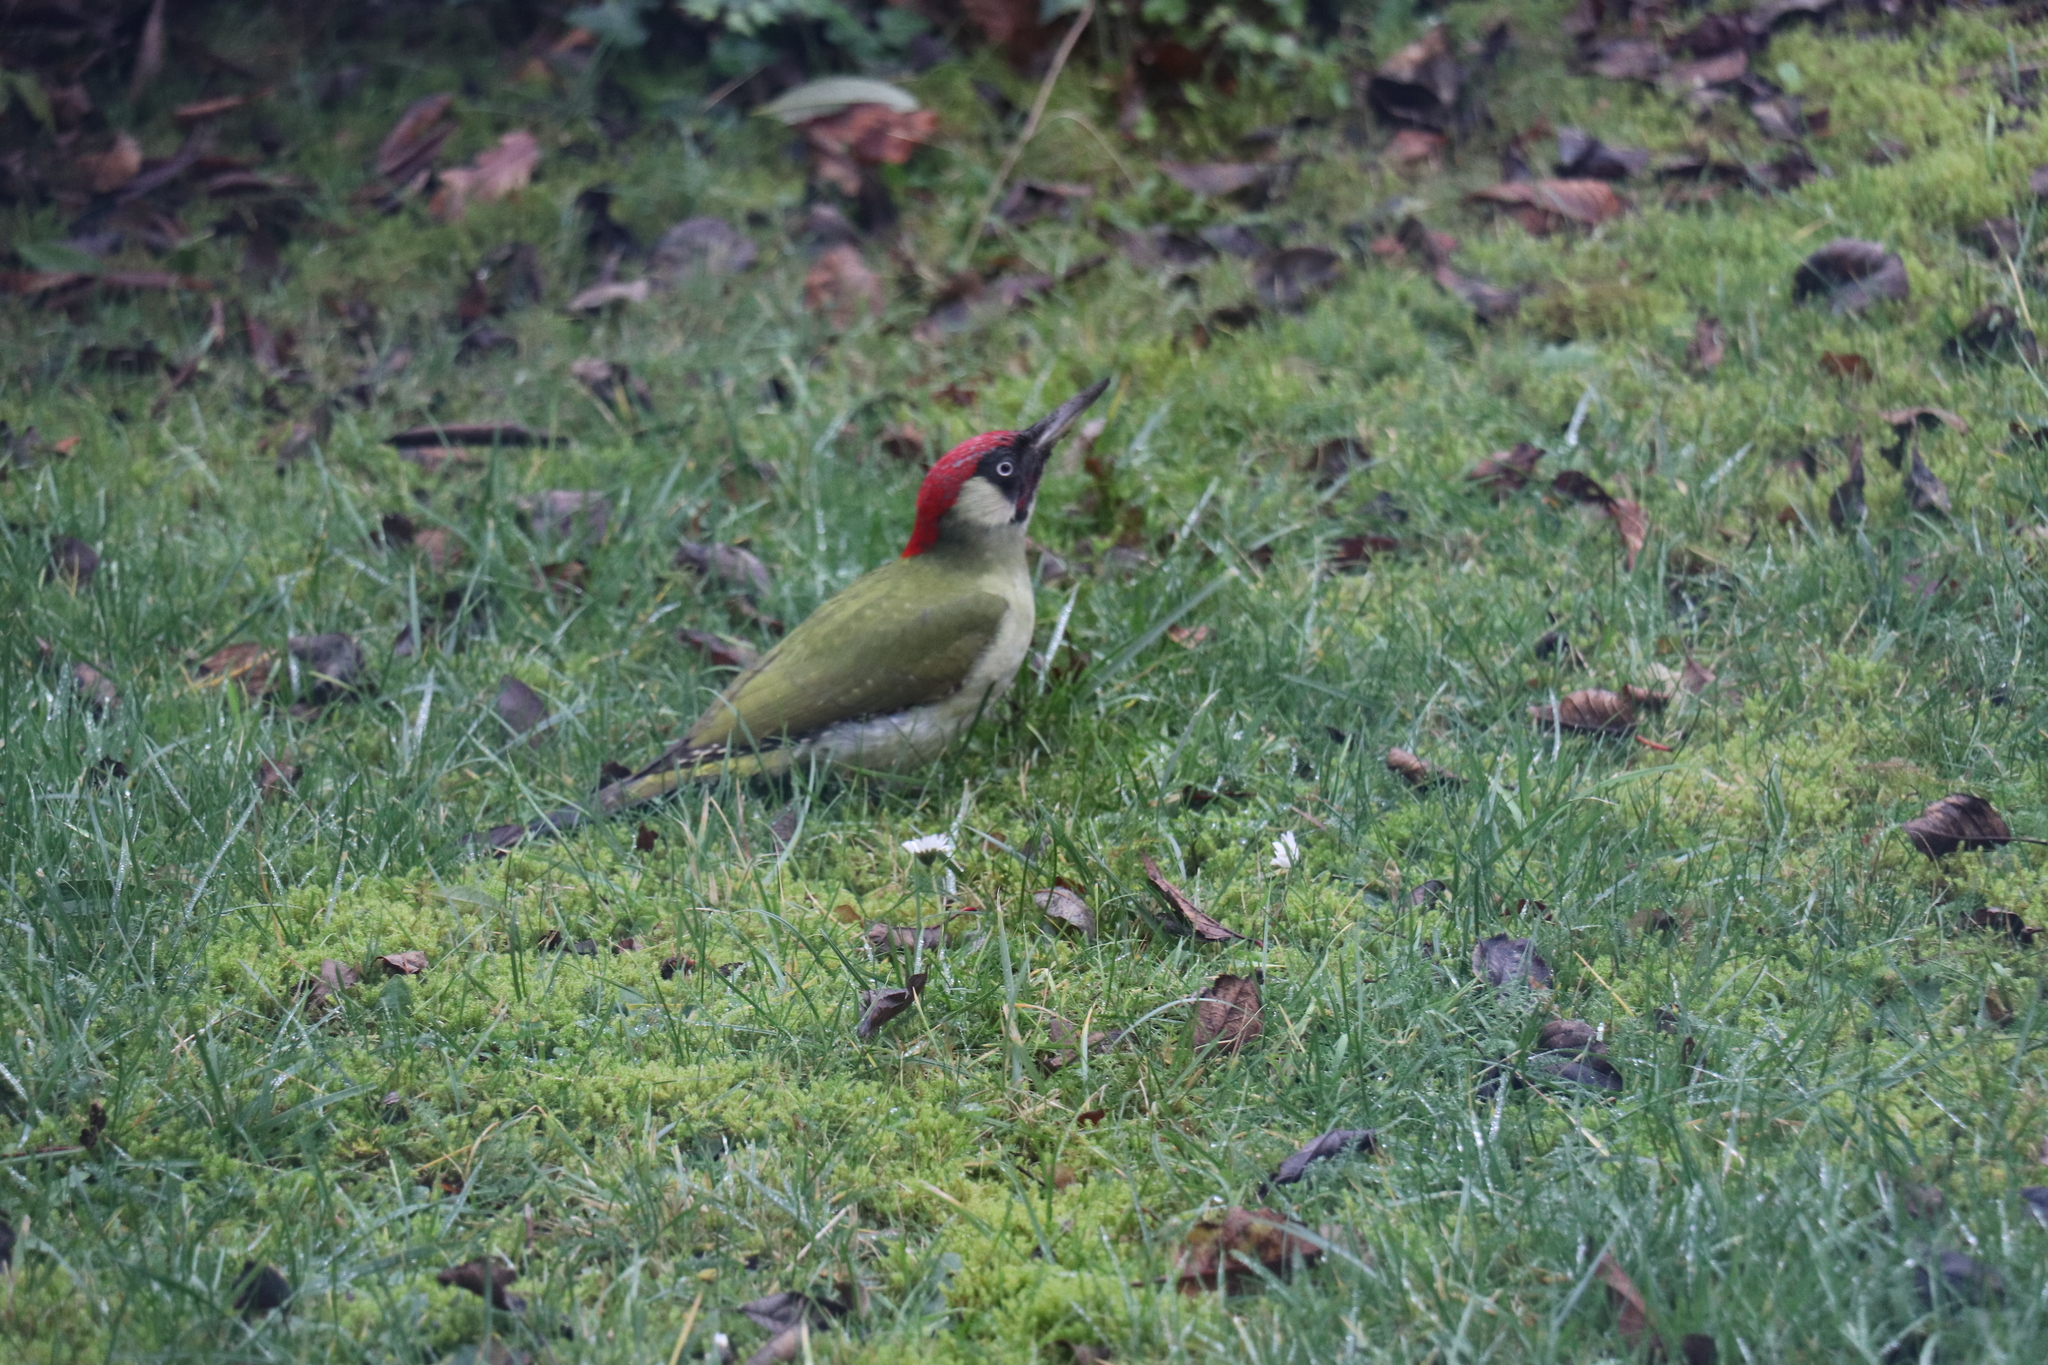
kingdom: Animalia
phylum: Chordata
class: Aves
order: Piciformes
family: Picidae
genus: Picus
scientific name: Picus viridis
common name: European green woodpecker
